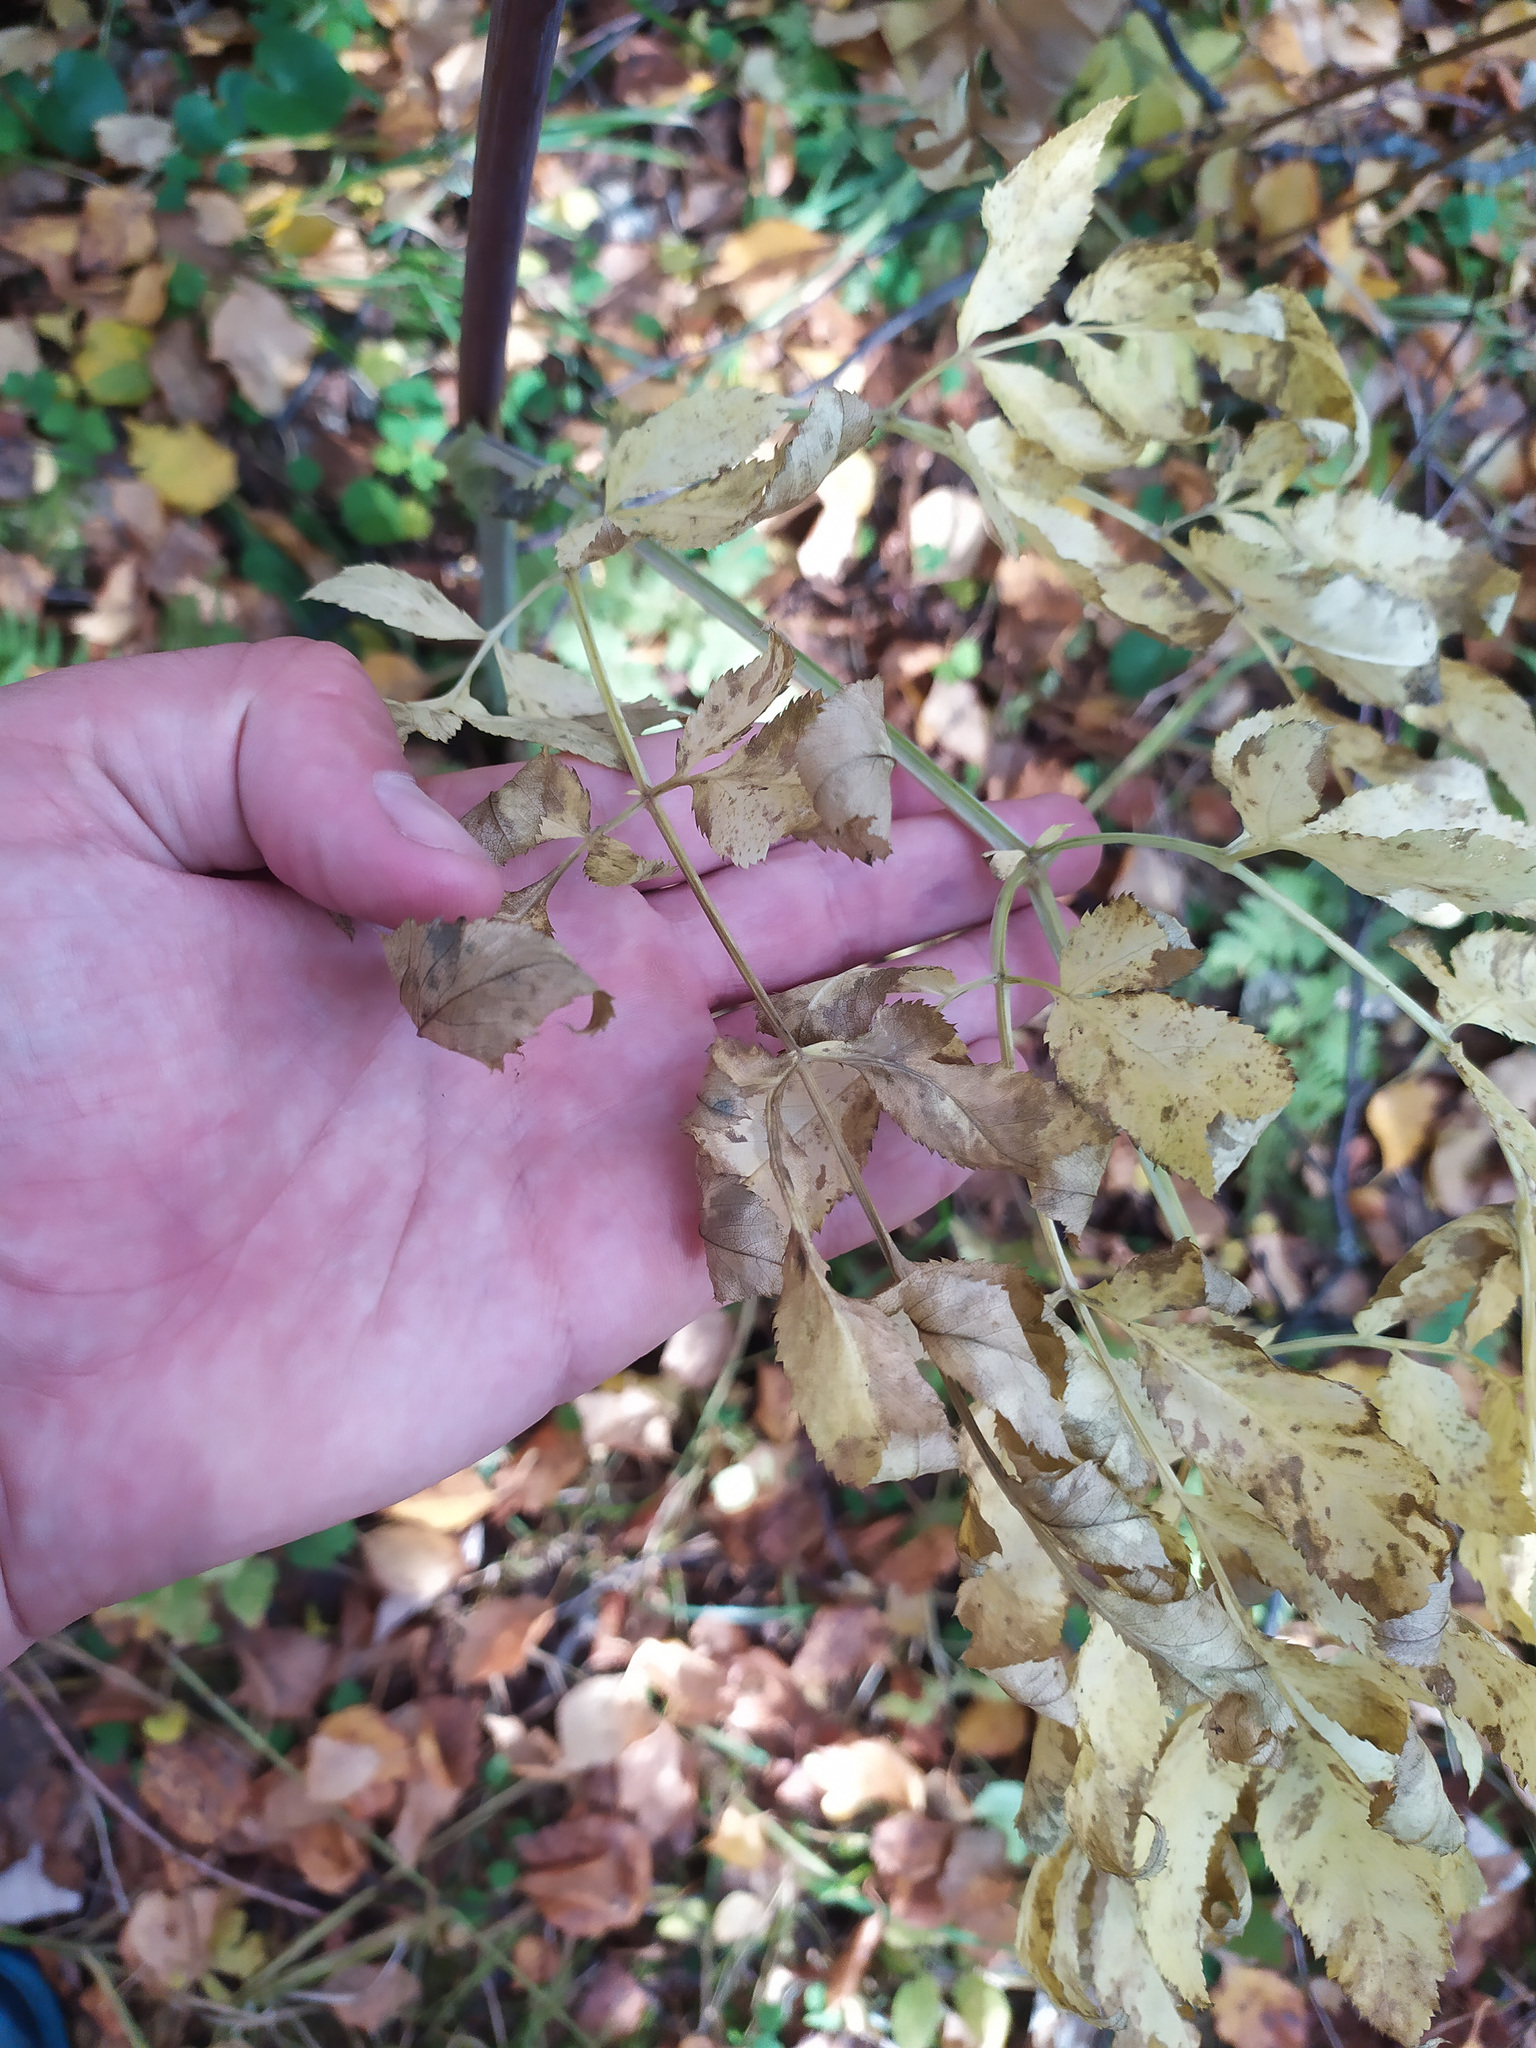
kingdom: Plantae
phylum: Tracheophyta
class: Magnoliopsida
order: Apiales
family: Apiaceae
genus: Angelica
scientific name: Angelica sylvestris
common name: Wild angelica
